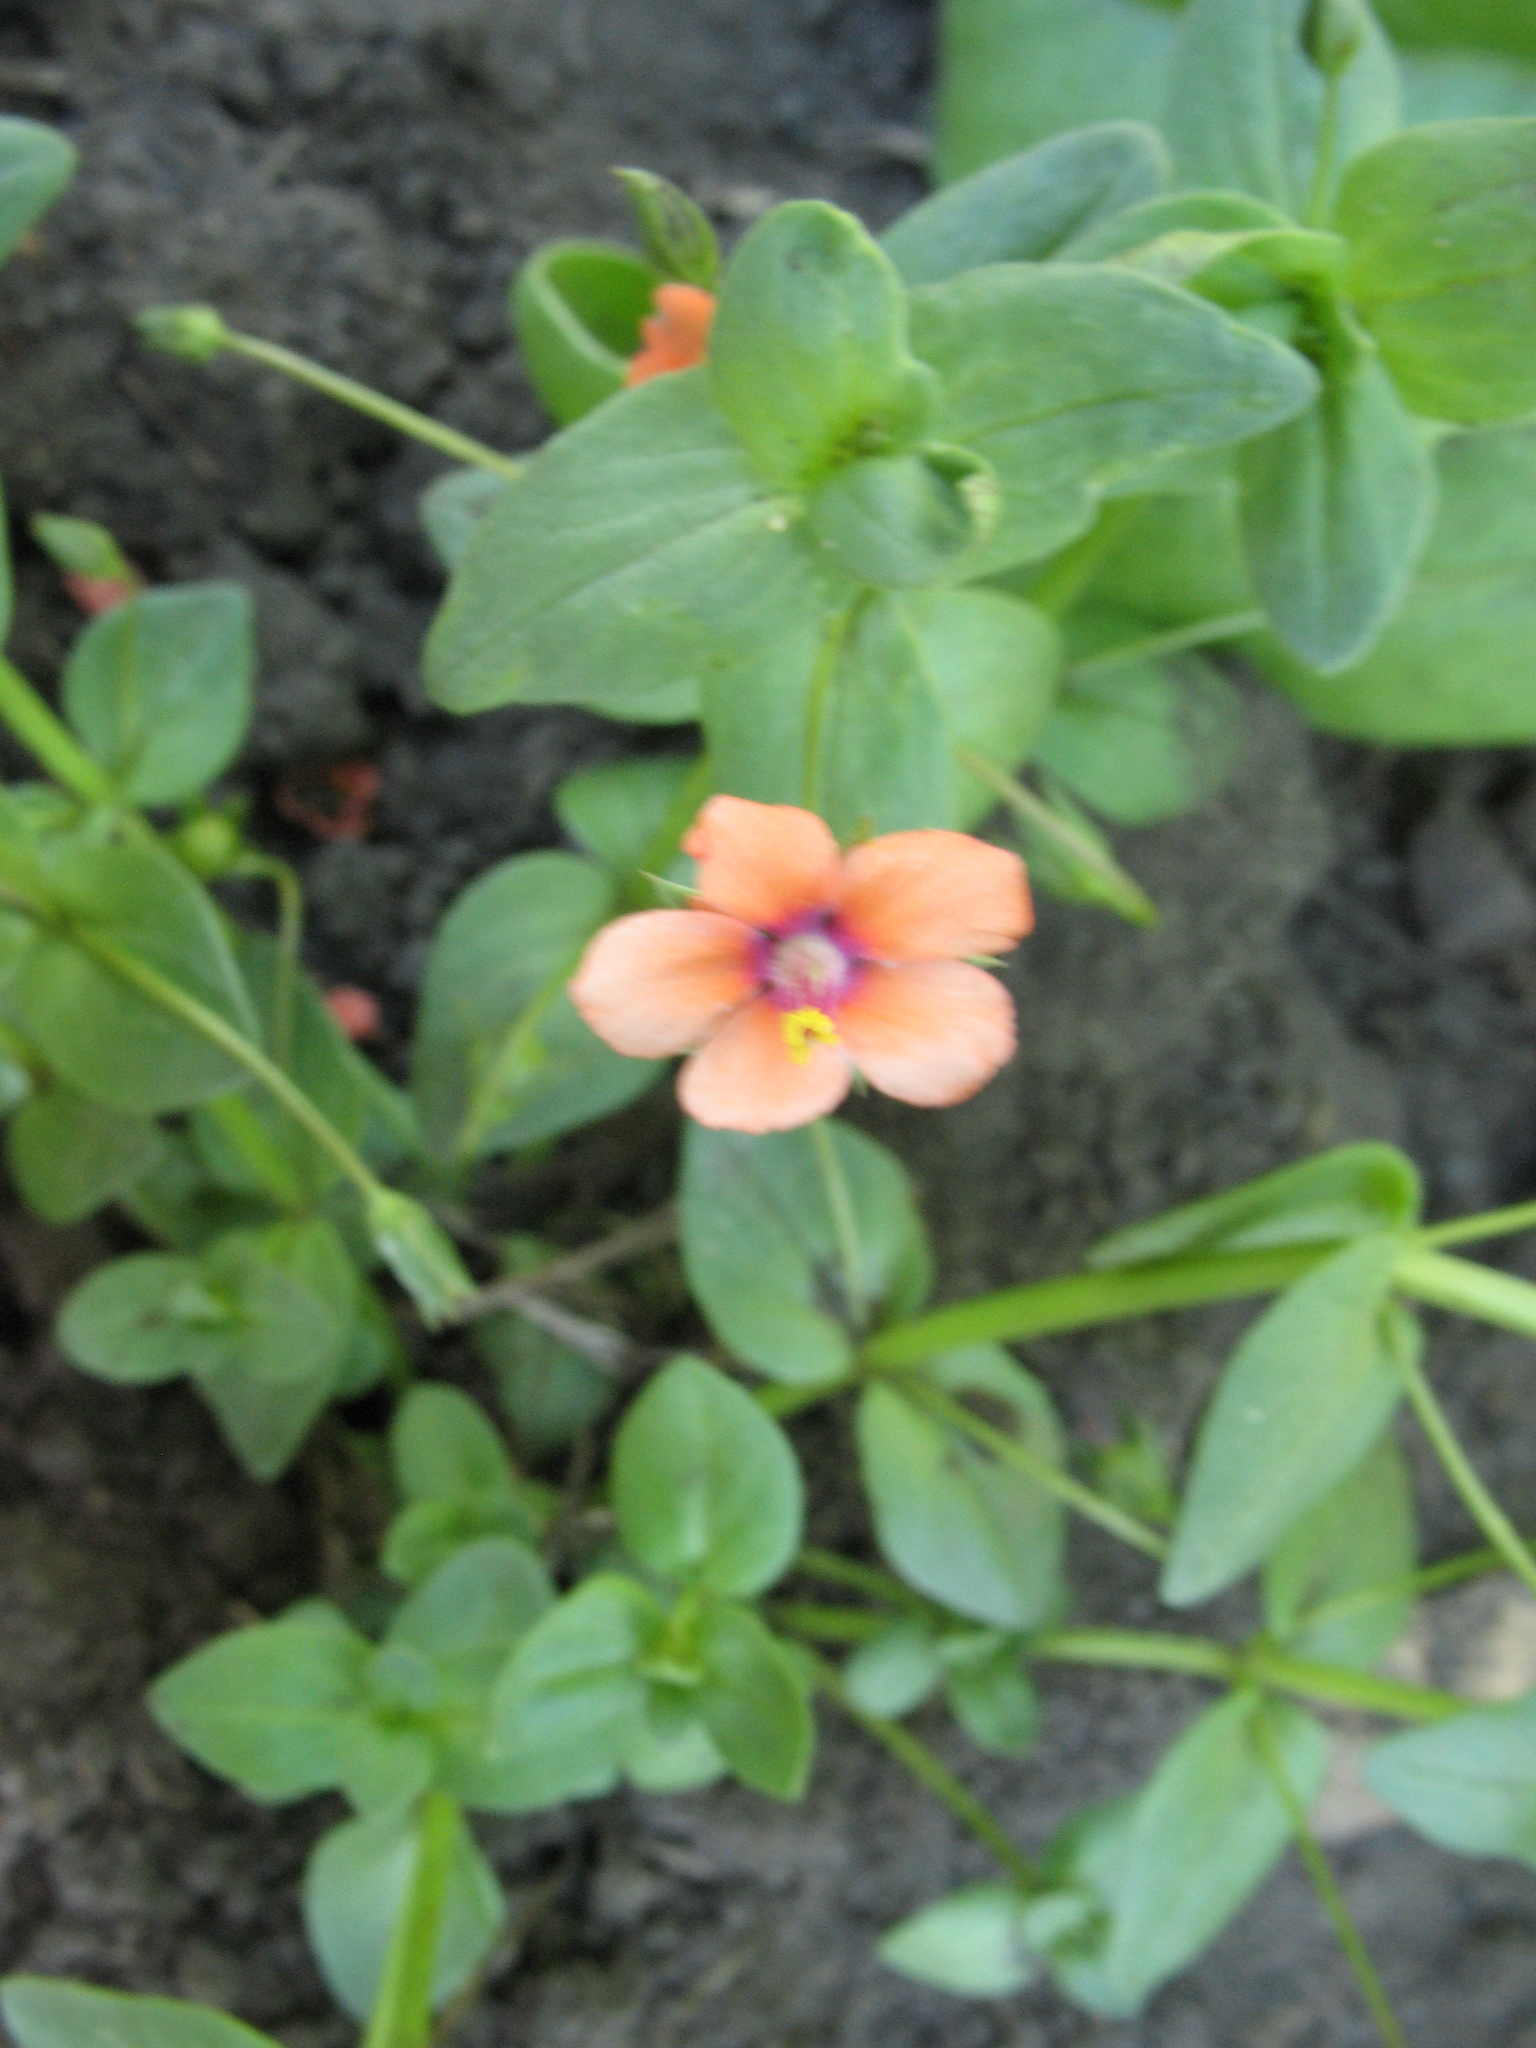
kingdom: Plantae
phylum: Tracheophyta
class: Magnoliopsida
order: Ericales
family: Primulaceae
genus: Lysimachia
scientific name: Lysimachia arvensis
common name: Scarlet pimpernel
